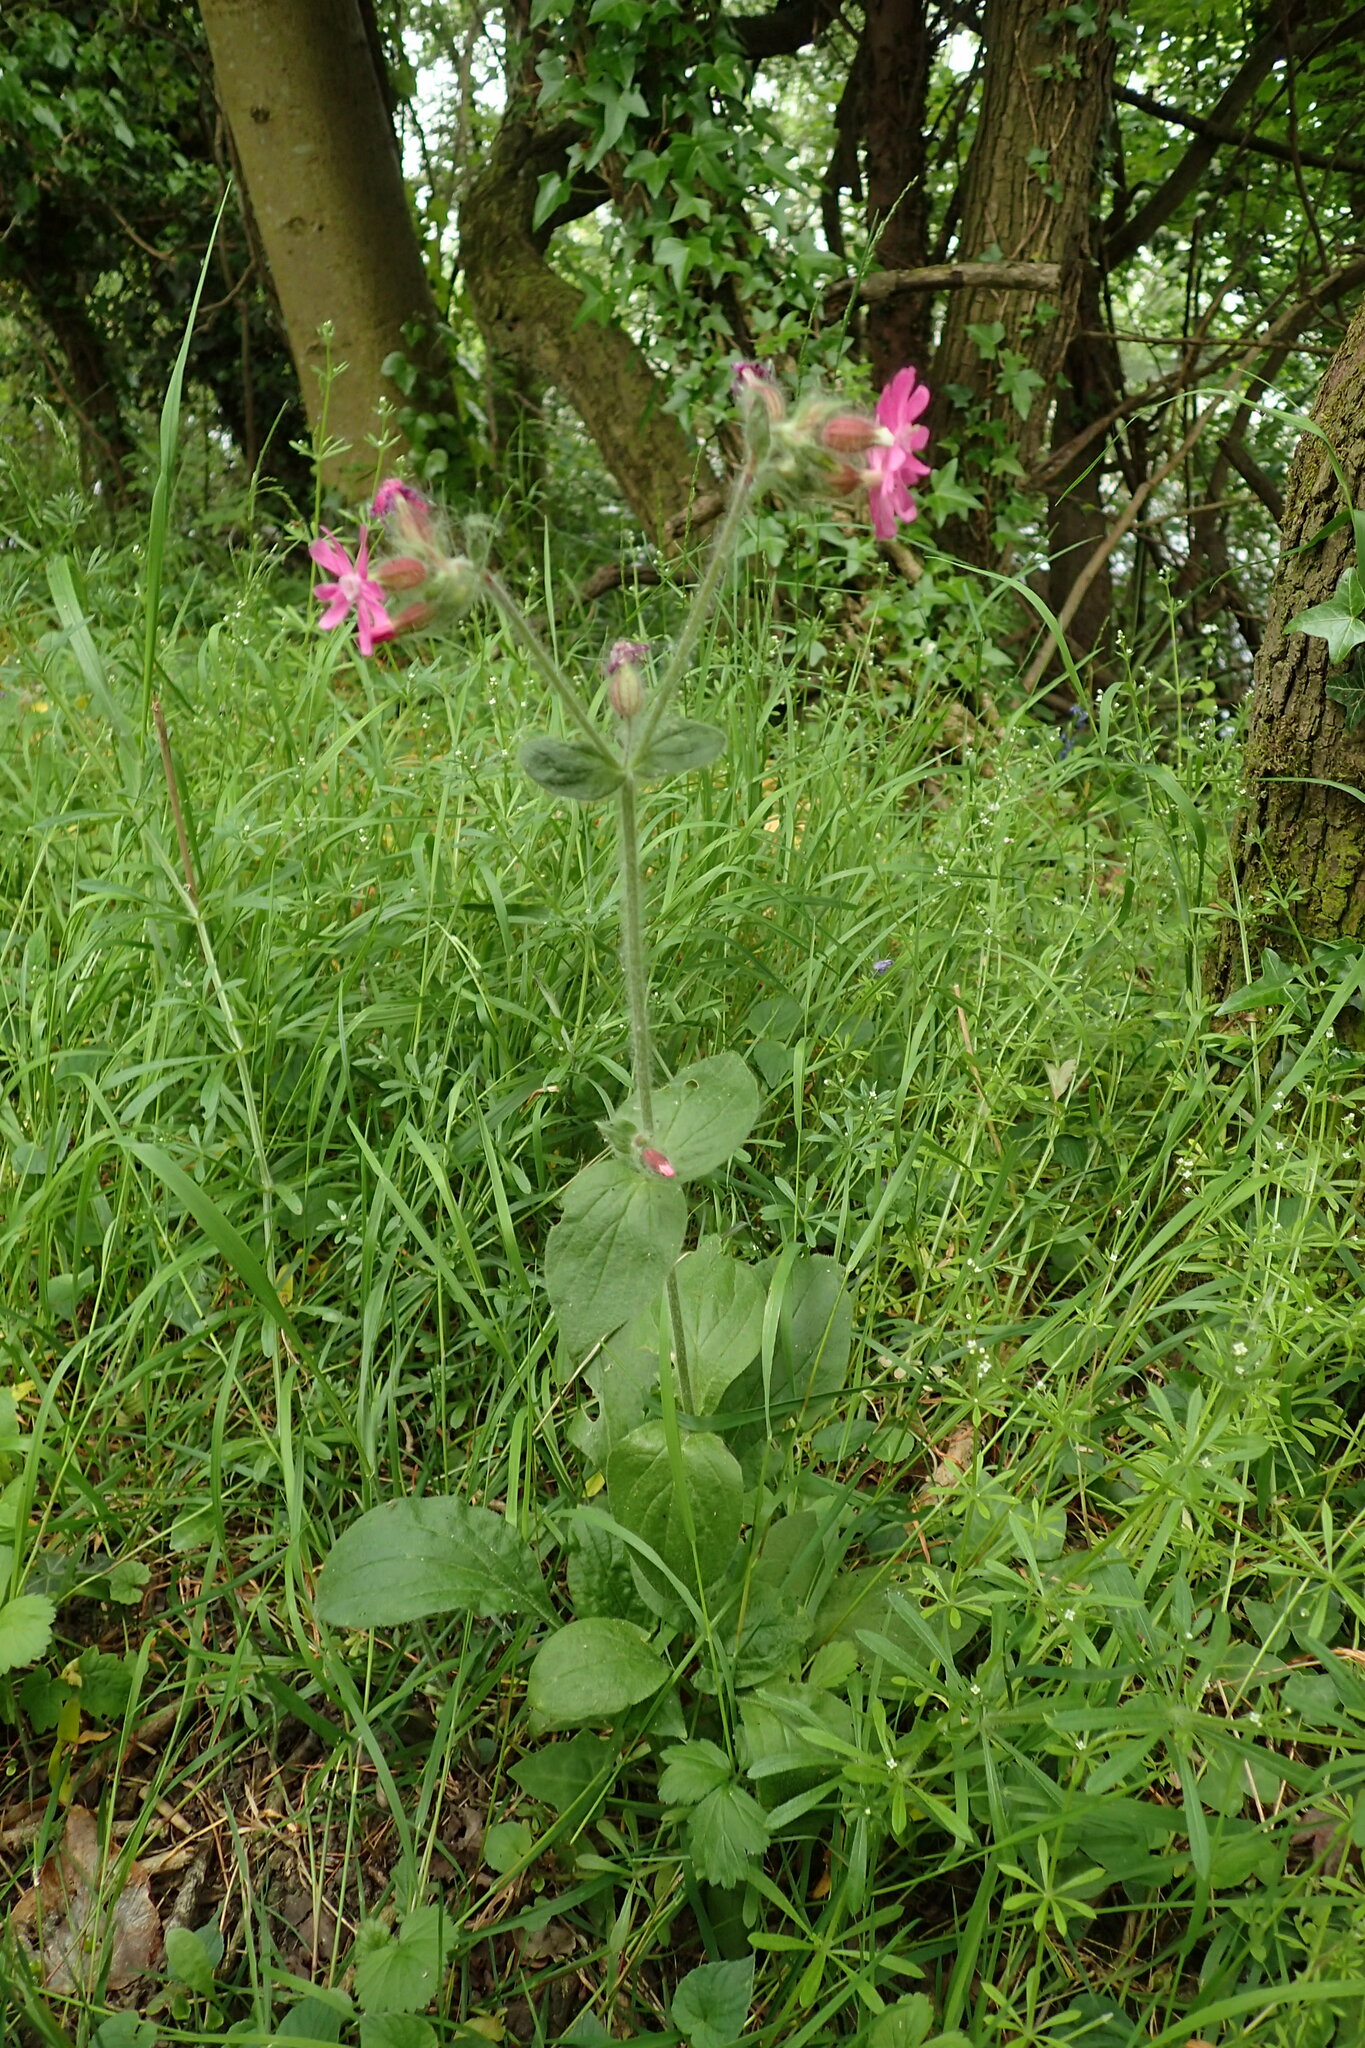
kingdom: Plantae
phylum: Tracheophyta
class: Magnoliopsida
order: Caryophyllales
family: Caryophyllaceae
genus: Silene
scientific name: Silene dioica
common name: Red campion
